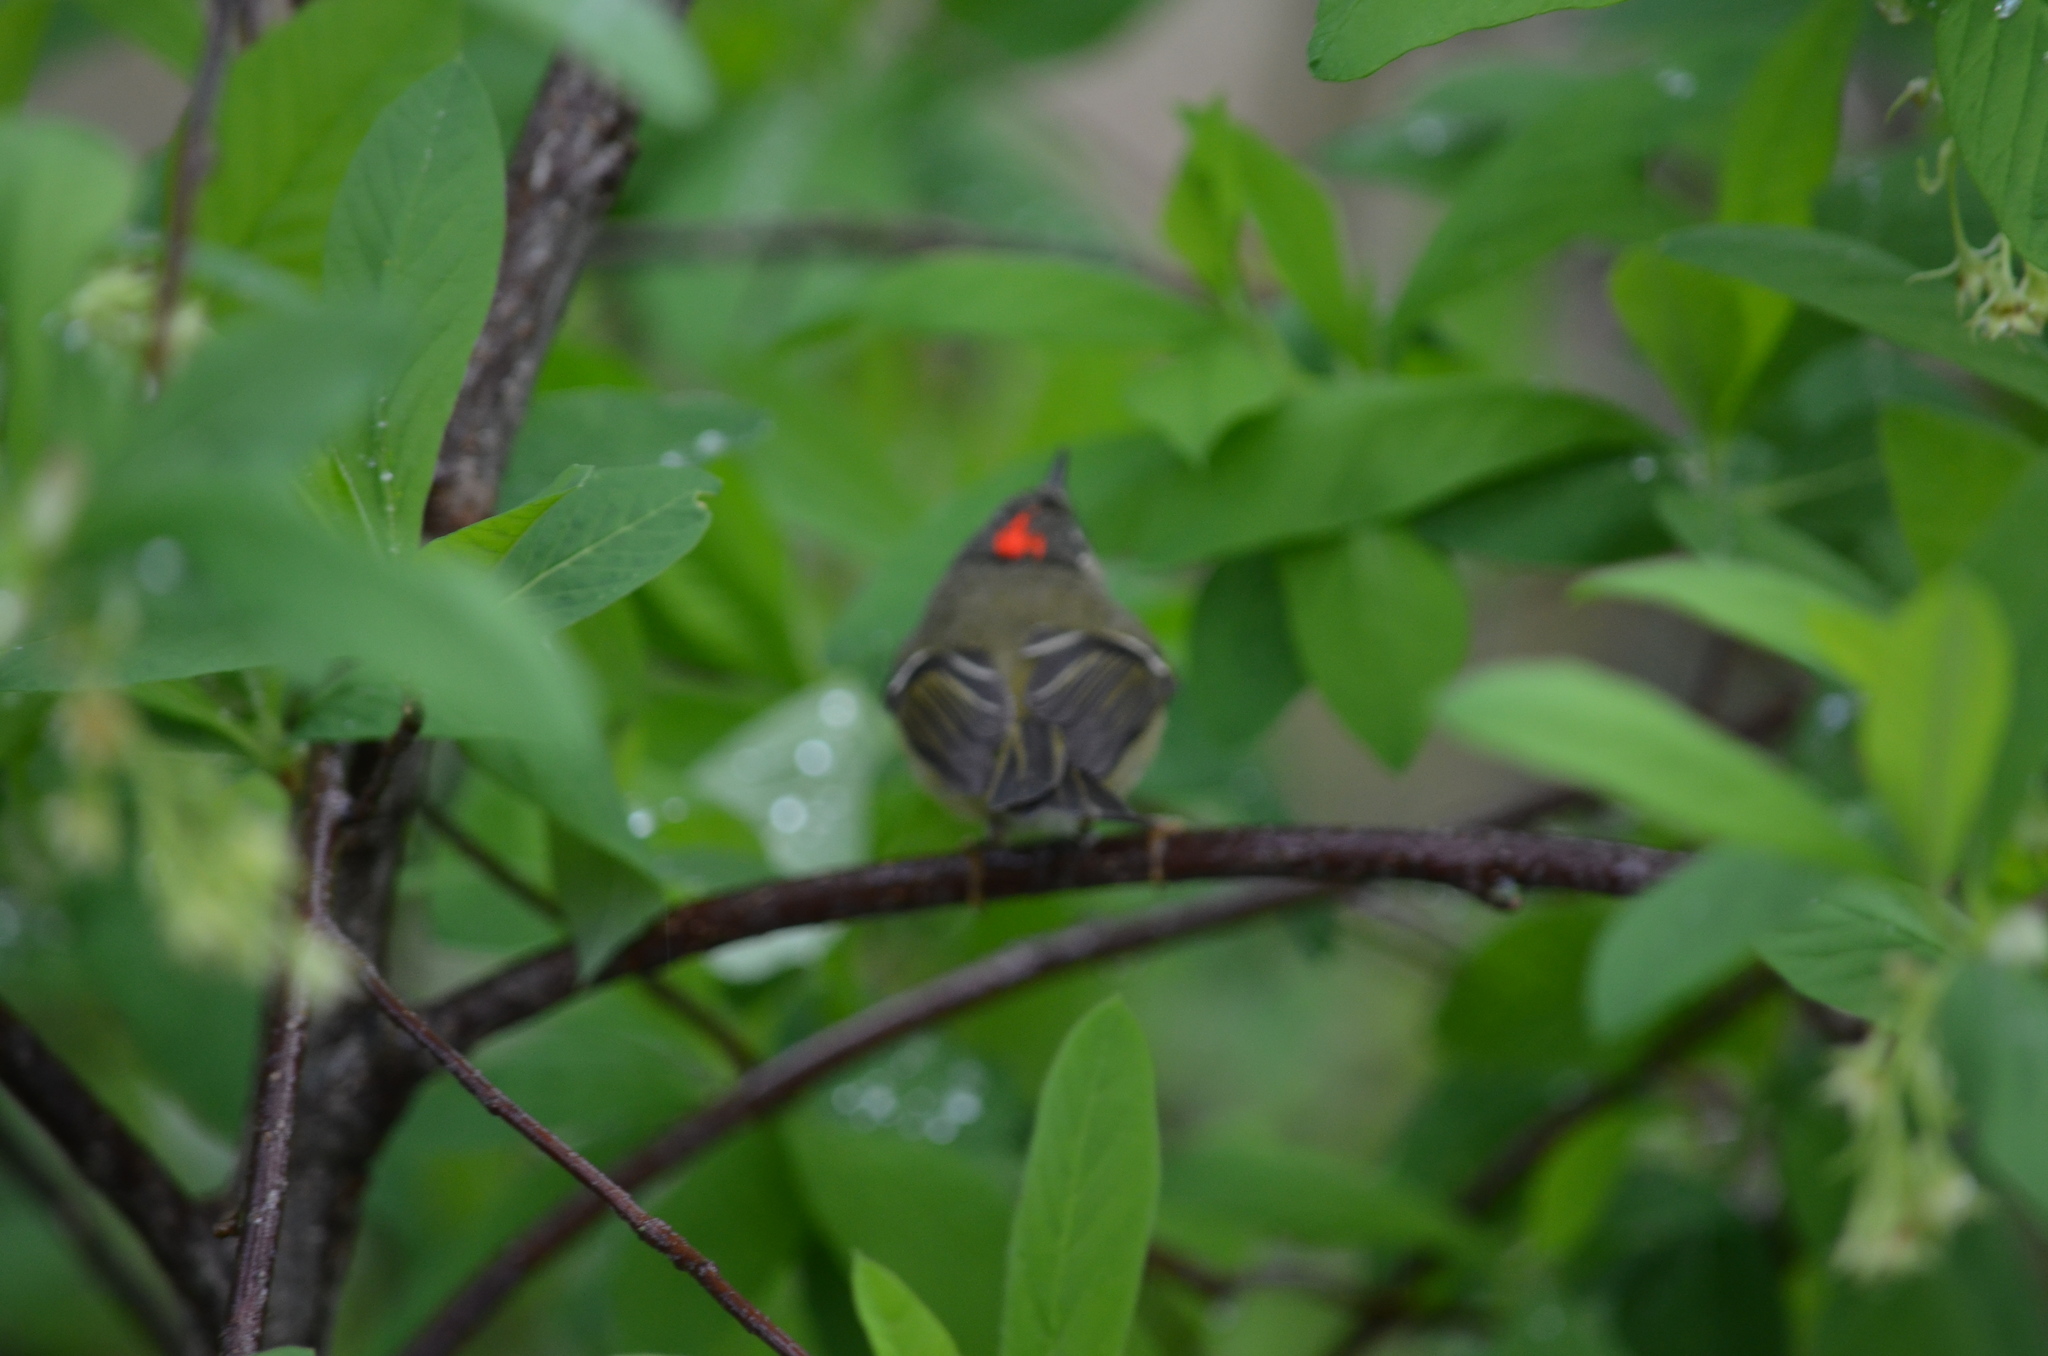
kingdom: Animalia
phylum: Chordata
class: Aves
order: Passeriformes
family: Regulidae
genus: Regulus
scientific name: Regulus calendula
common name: Ruby-crowned kinglet
